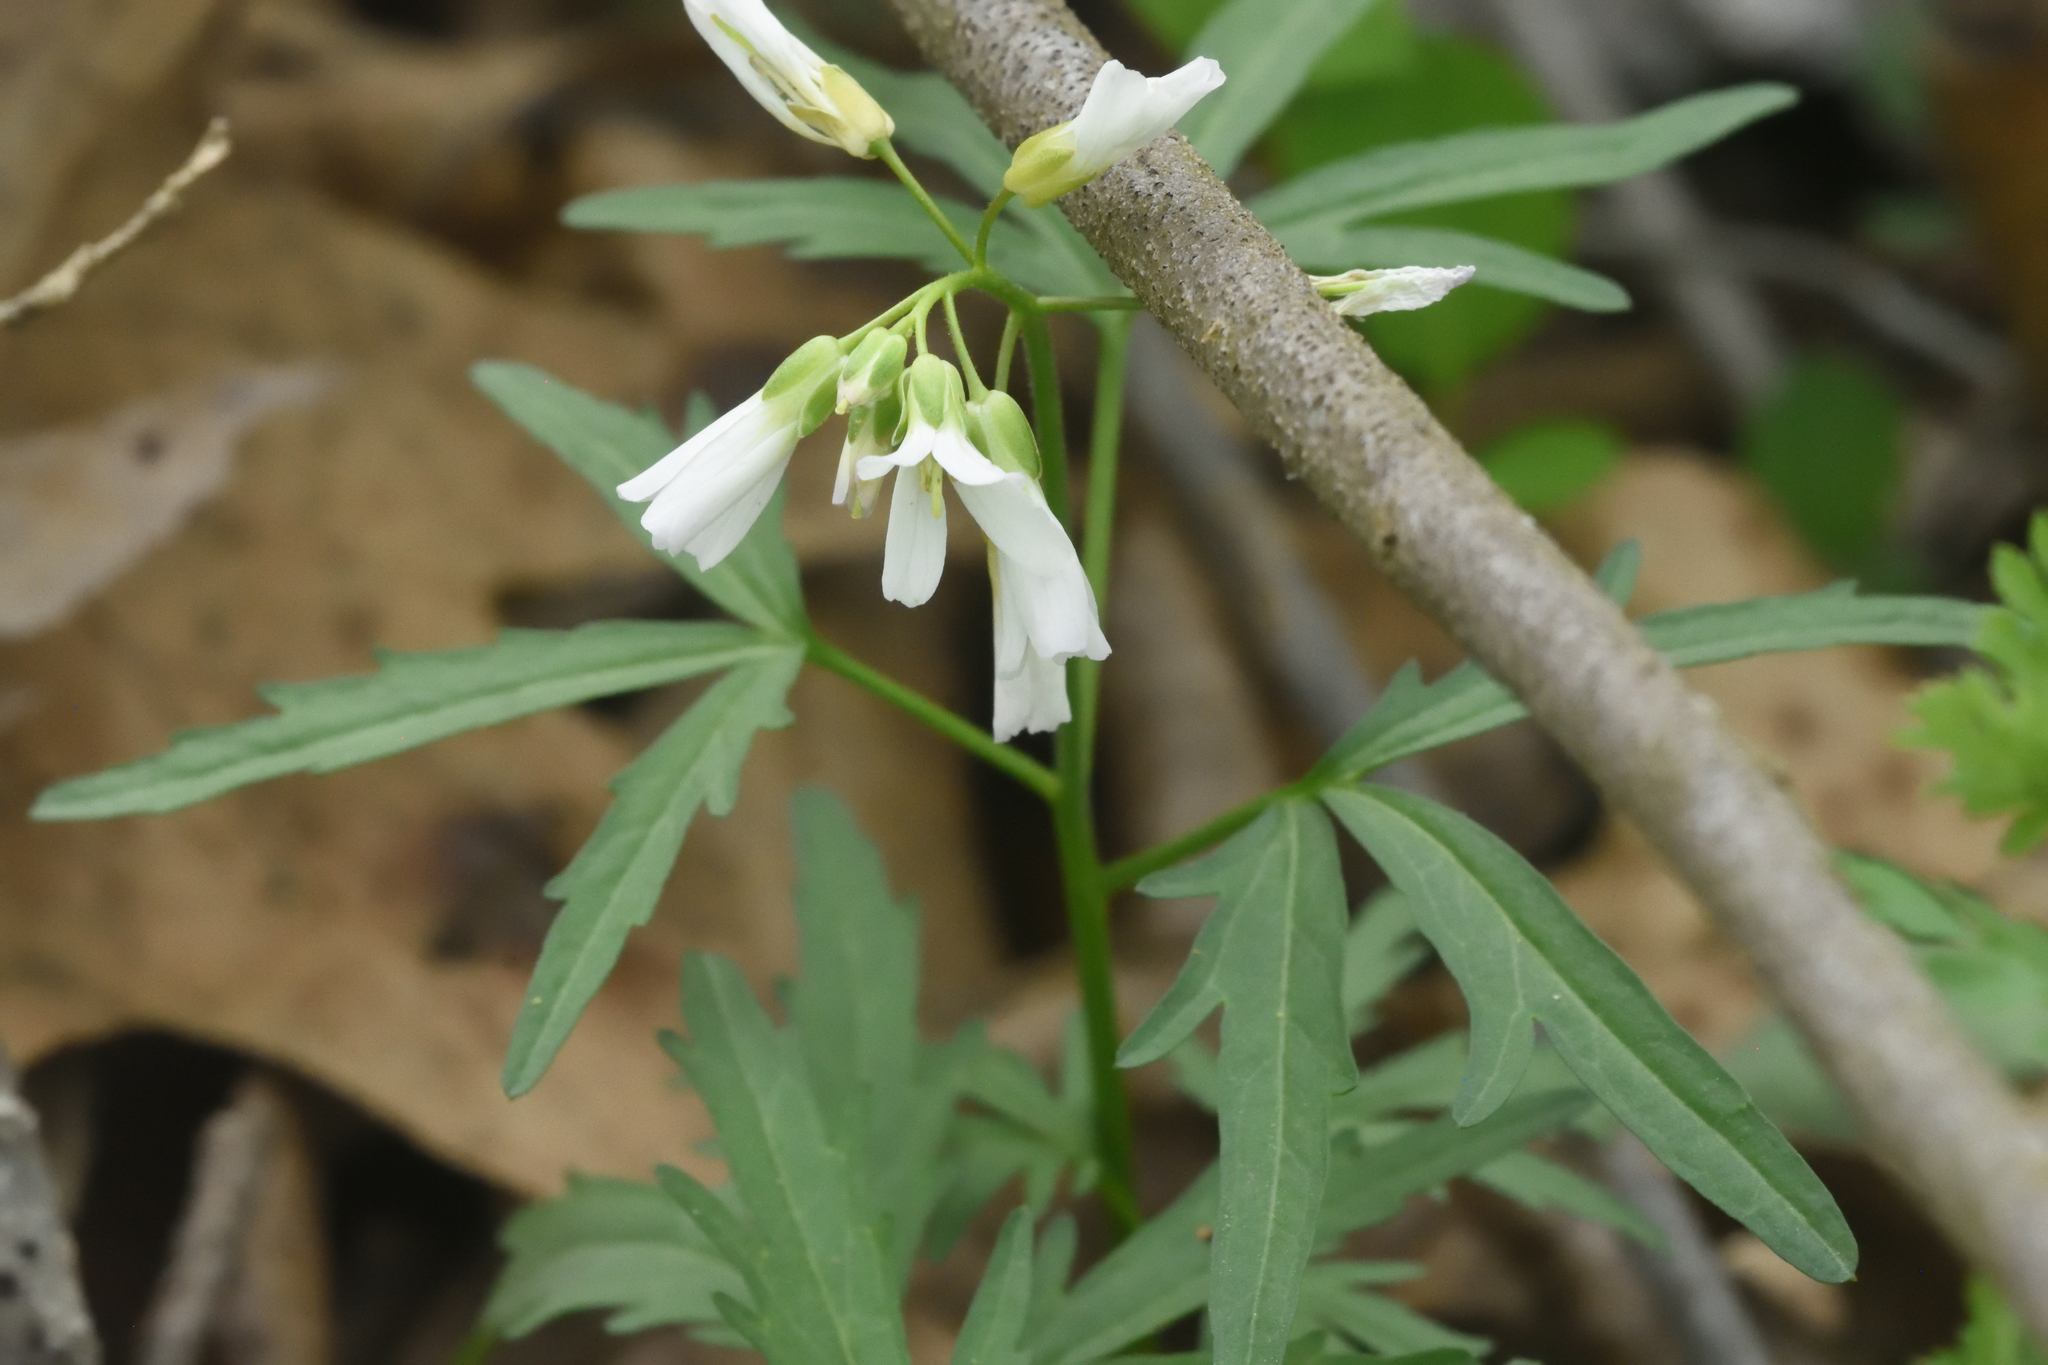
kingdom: Plantae
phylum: Tracheophyta
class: Magnoliopsida
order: Brassicales
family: Brassicaceae
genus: Cardamine
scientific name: Cardamine concatenata
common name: Cut-leaf toothcup
